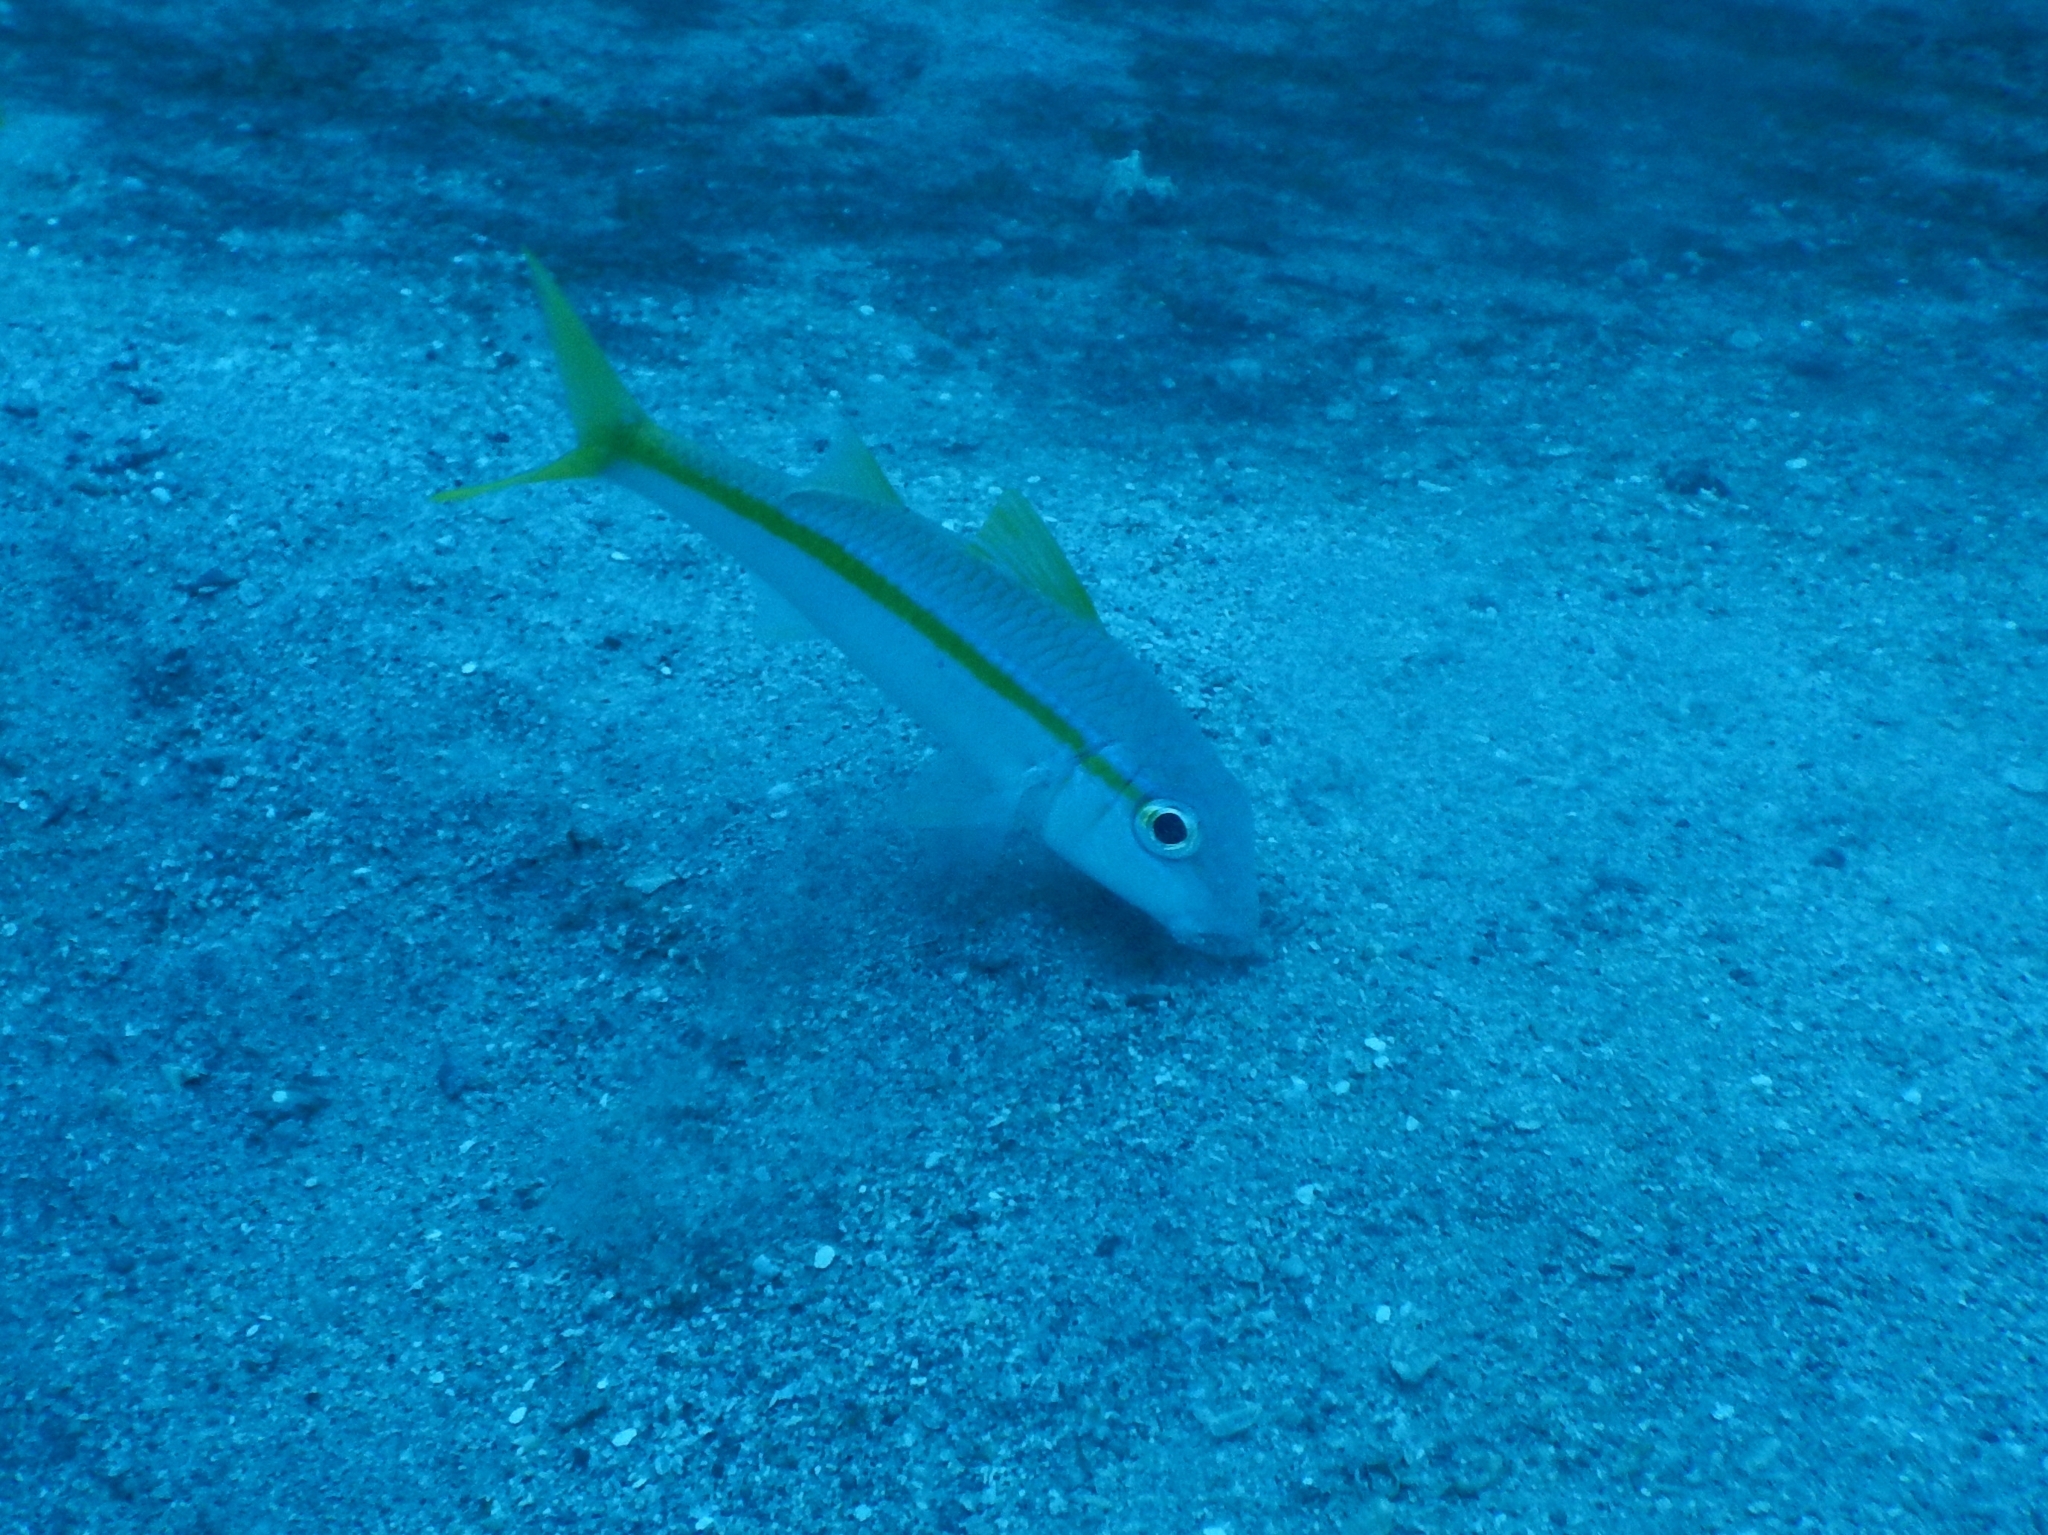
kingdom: Animalia
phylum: Chordata
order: Perciformes
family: Mullidae
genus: Mulloidichthys
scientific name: Mulloidichthys martinicus
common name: Yellow goatfish
